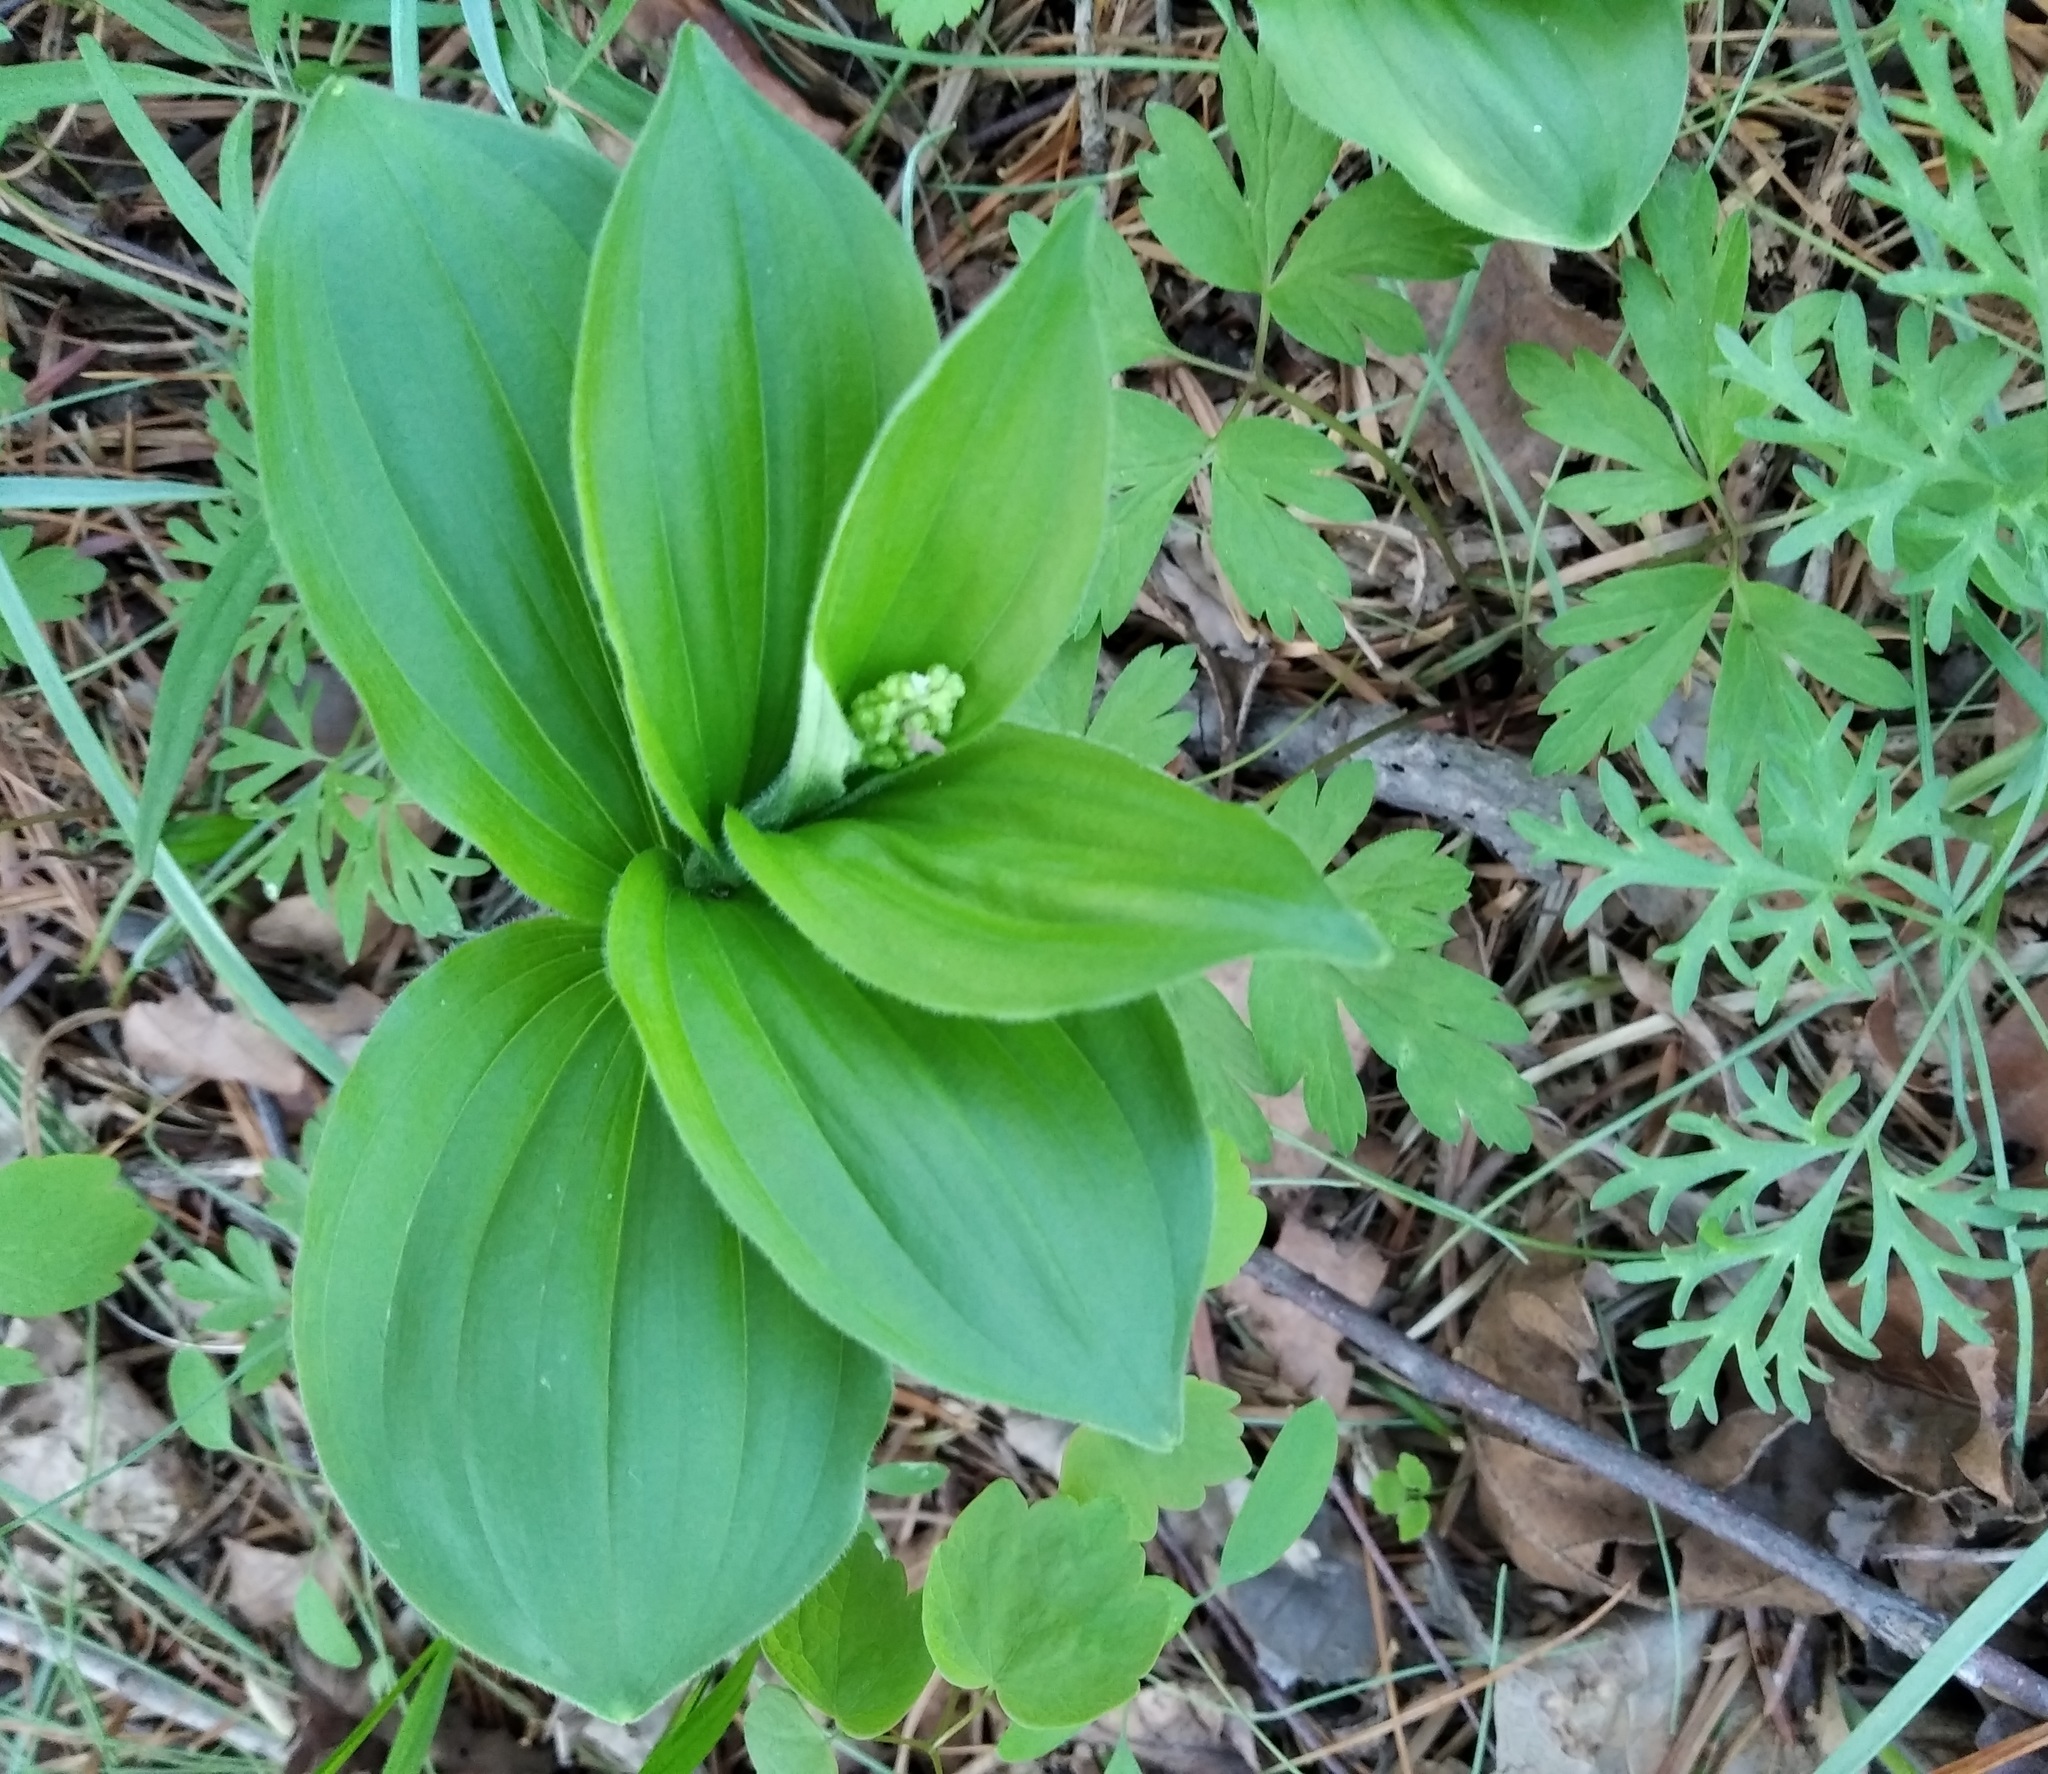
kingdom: Plantae
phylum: Tracheophyta
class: Liliopsida
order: Asparagales
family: Asparagaceae
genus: Maianthemum
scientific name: Maianthemum japonicum
